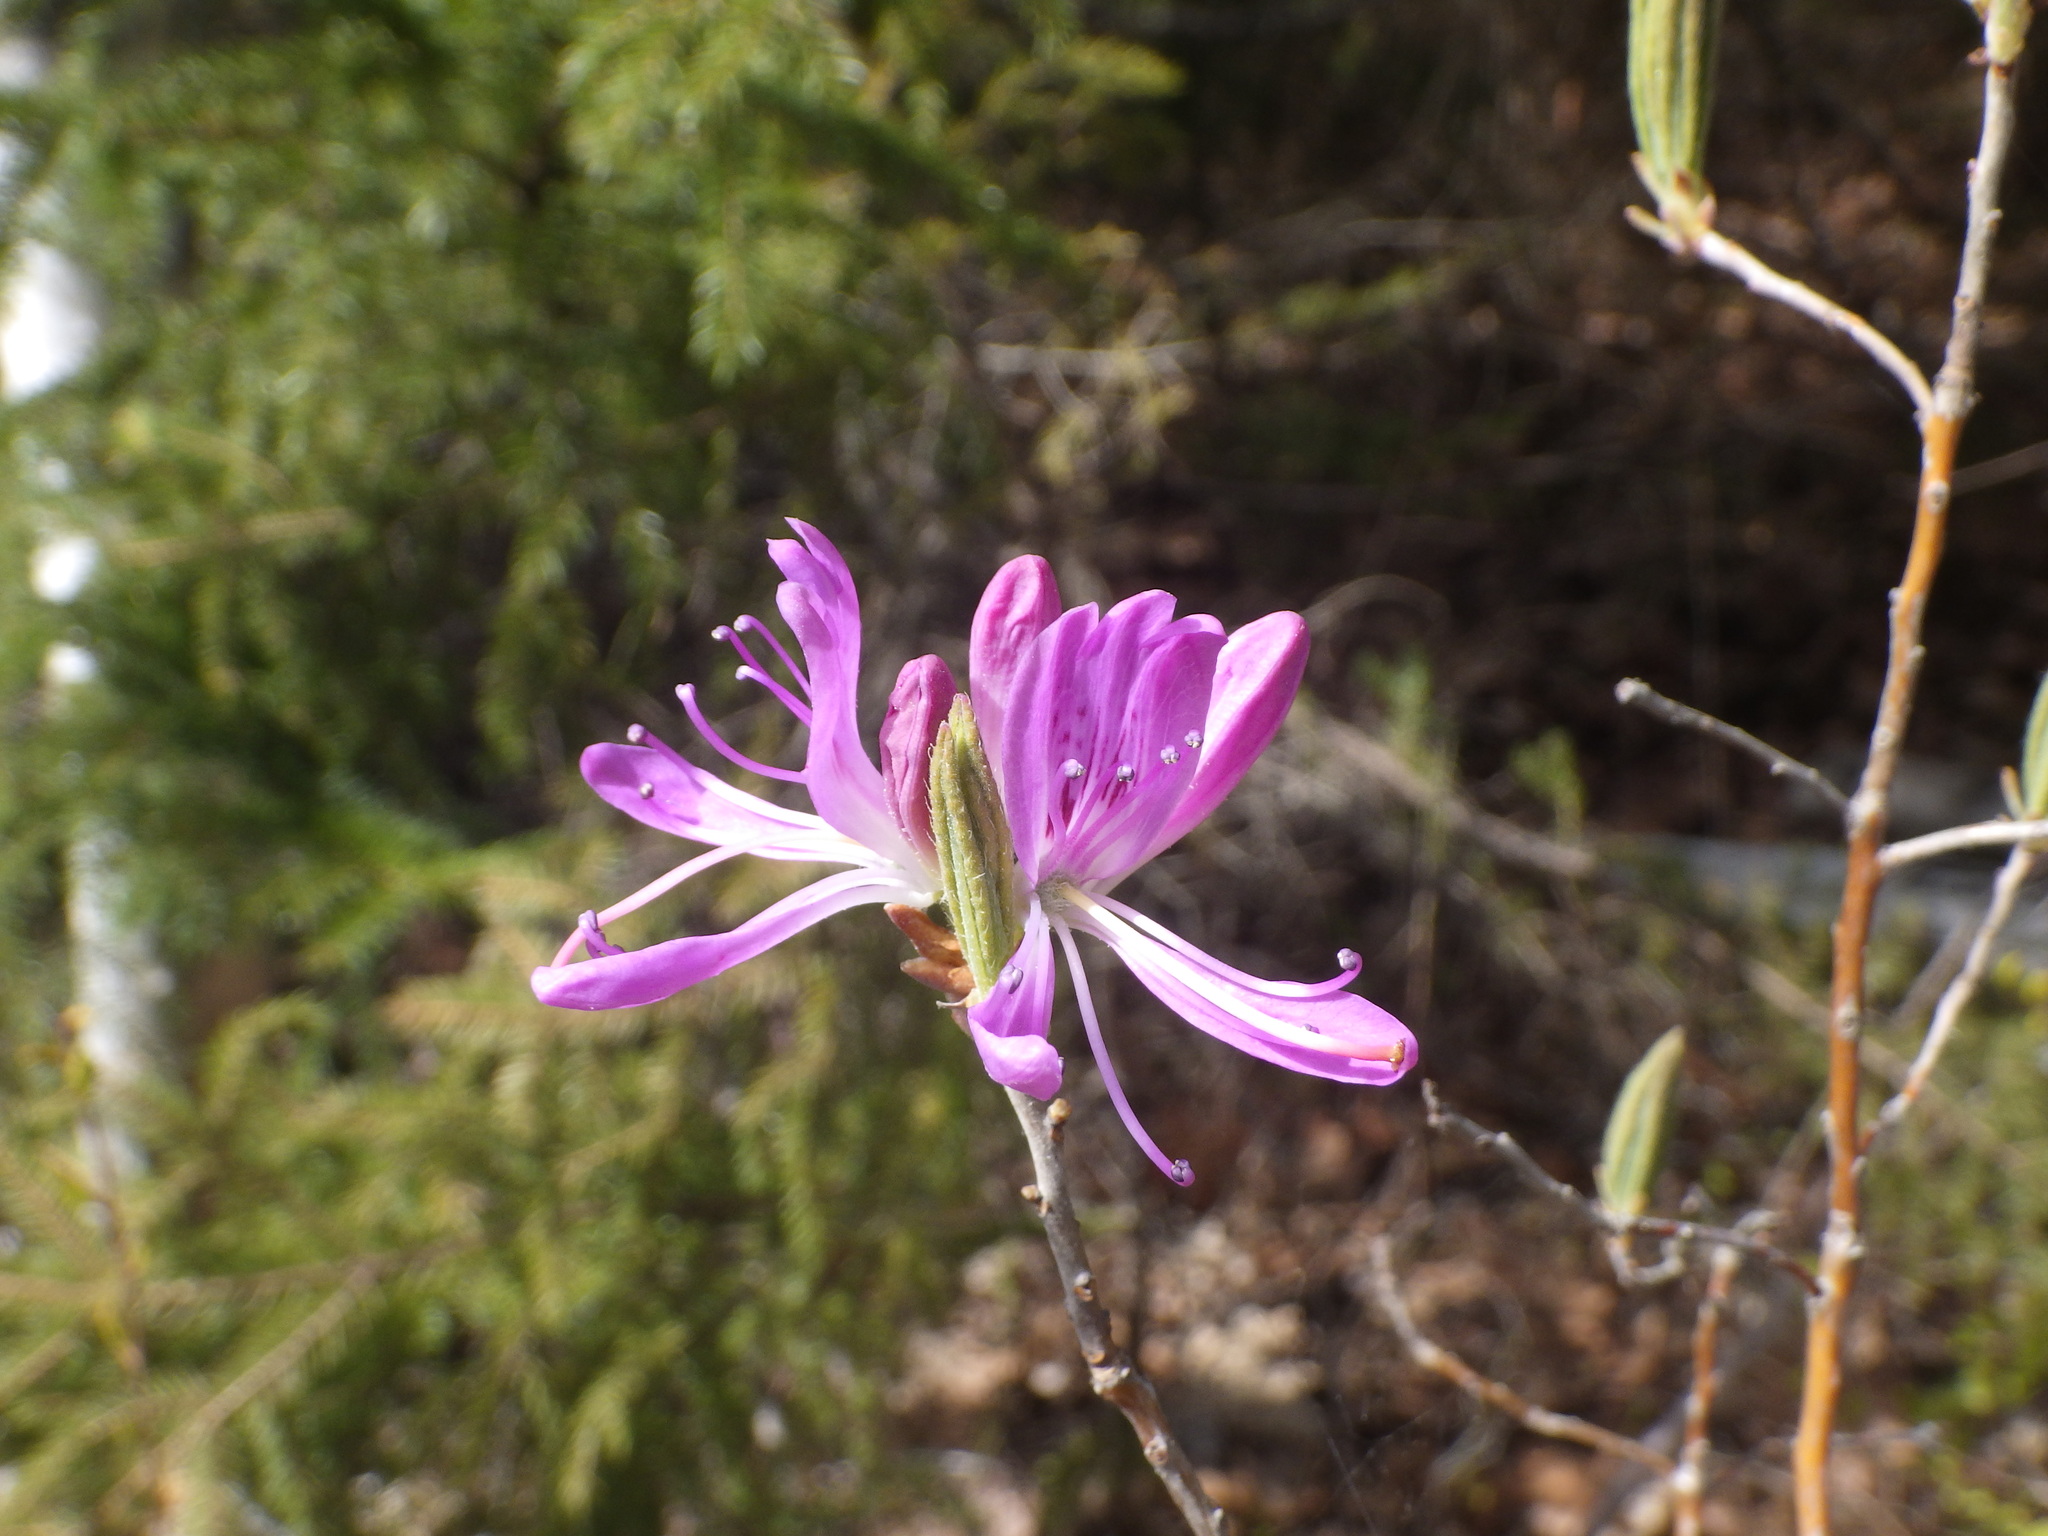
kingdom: Plantae
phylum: Tracheophyta
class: Magnoliopsida
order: Ericales
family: Ericaceae
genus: Rhododendron
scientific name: Rhododendron canadense
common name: Rhodora
